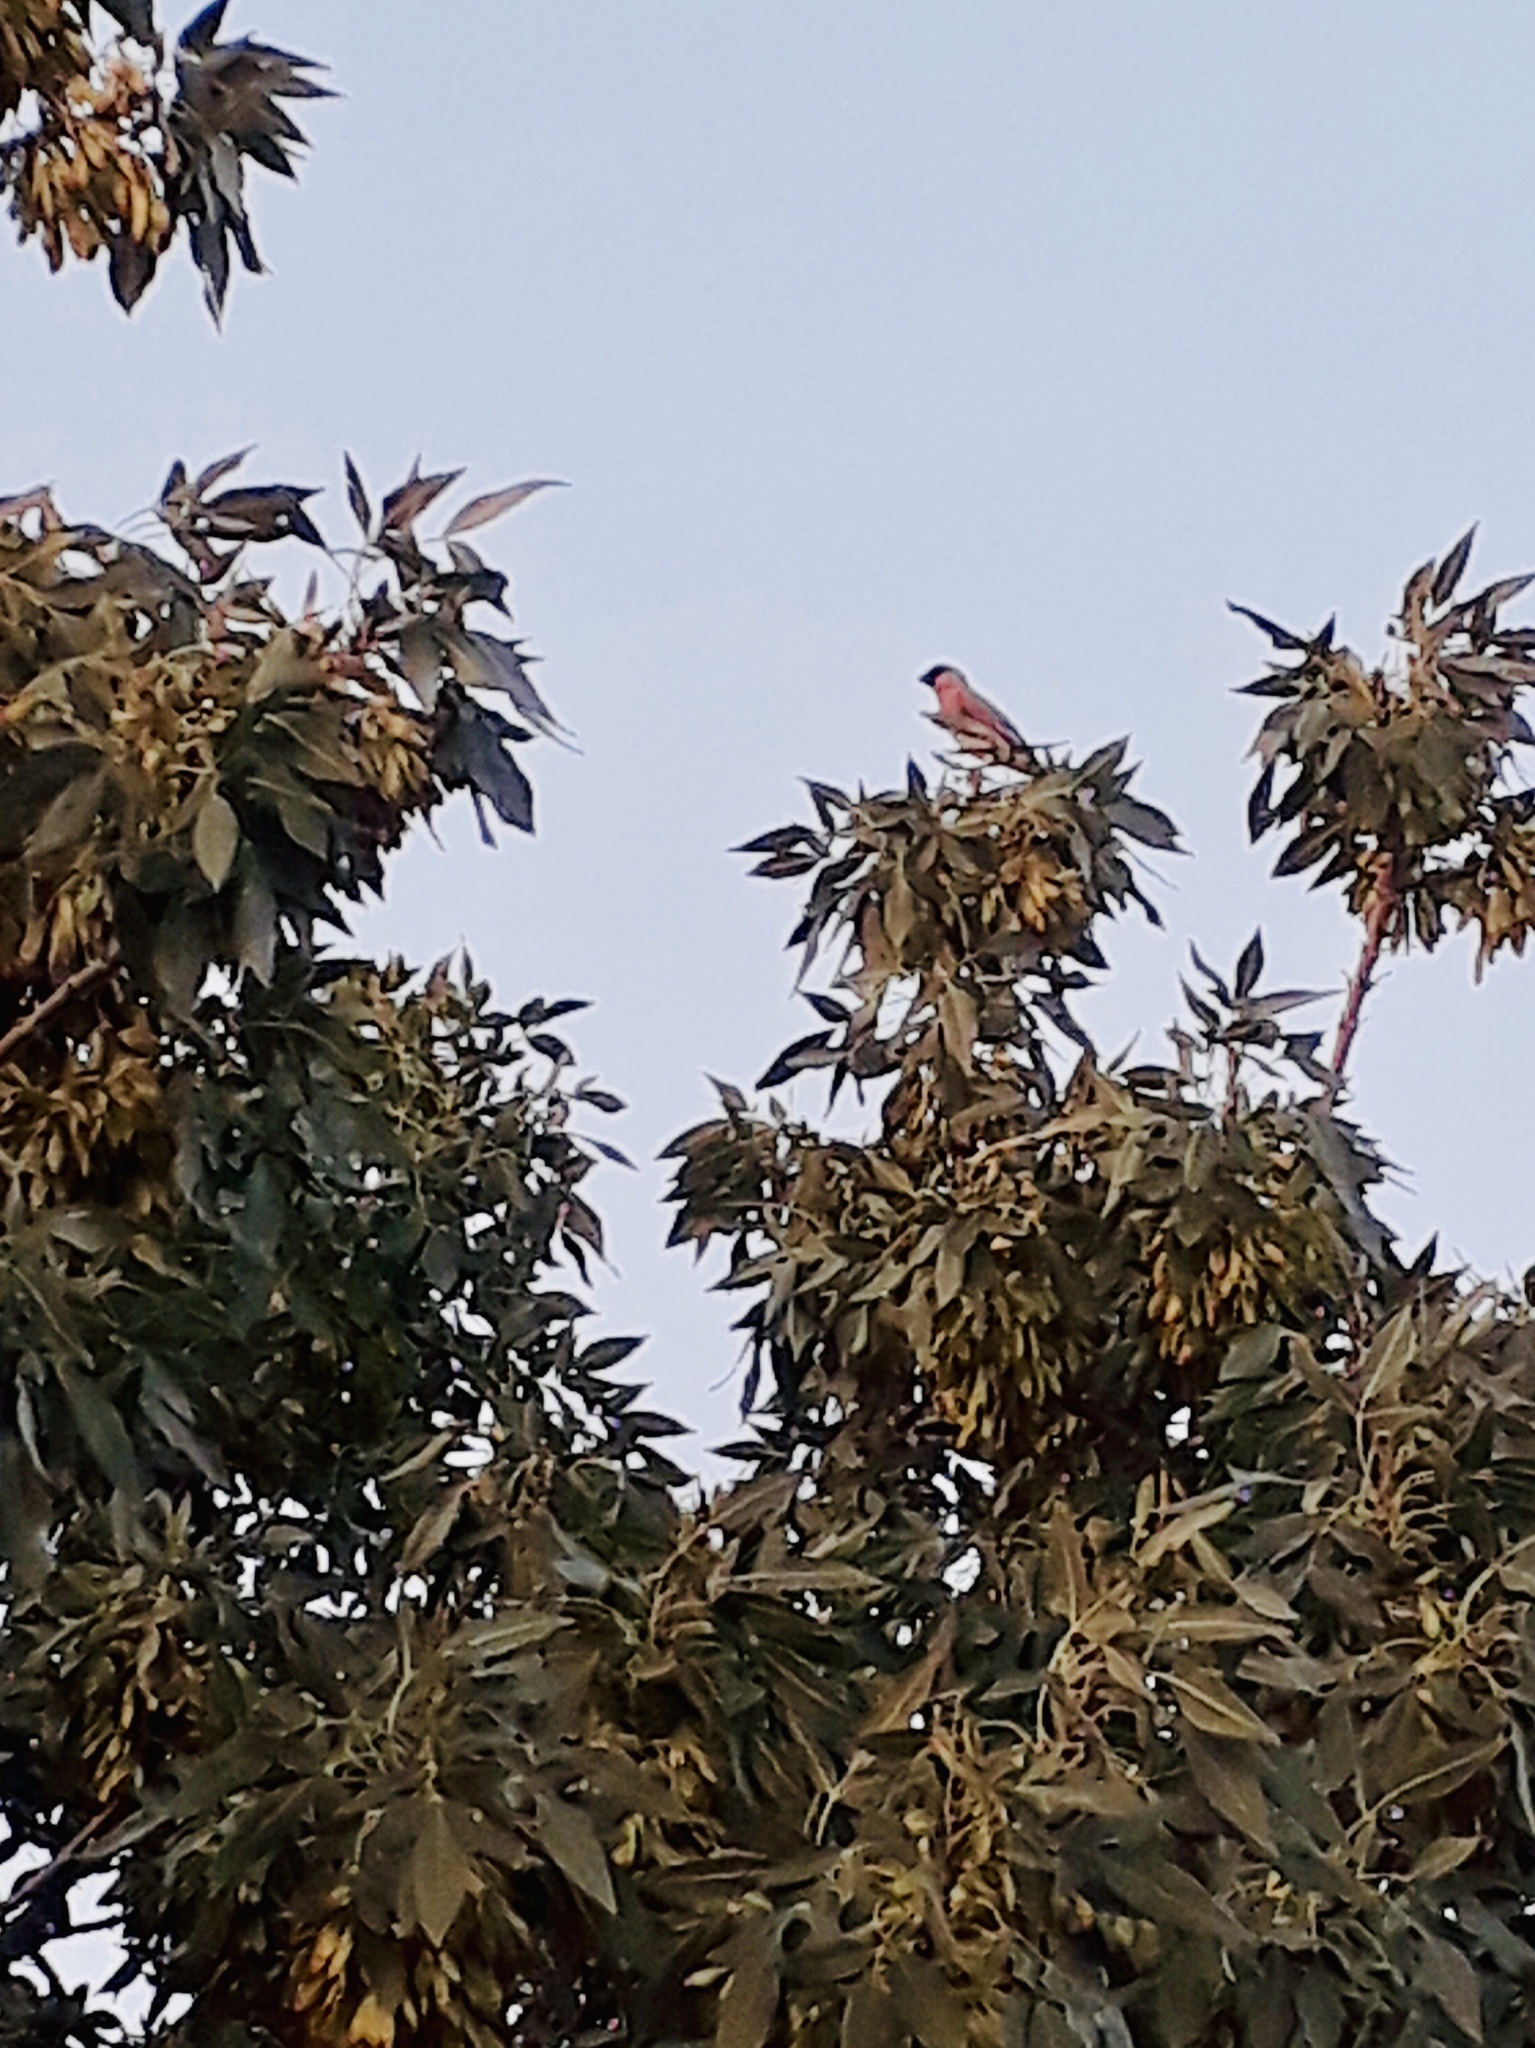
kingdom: Animalia
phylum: Chordata
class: Aves
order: Passeriformes
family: Fringillidae
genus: Rhodospiza
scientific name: Rhodospiza obsoleta
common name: Desert finch
